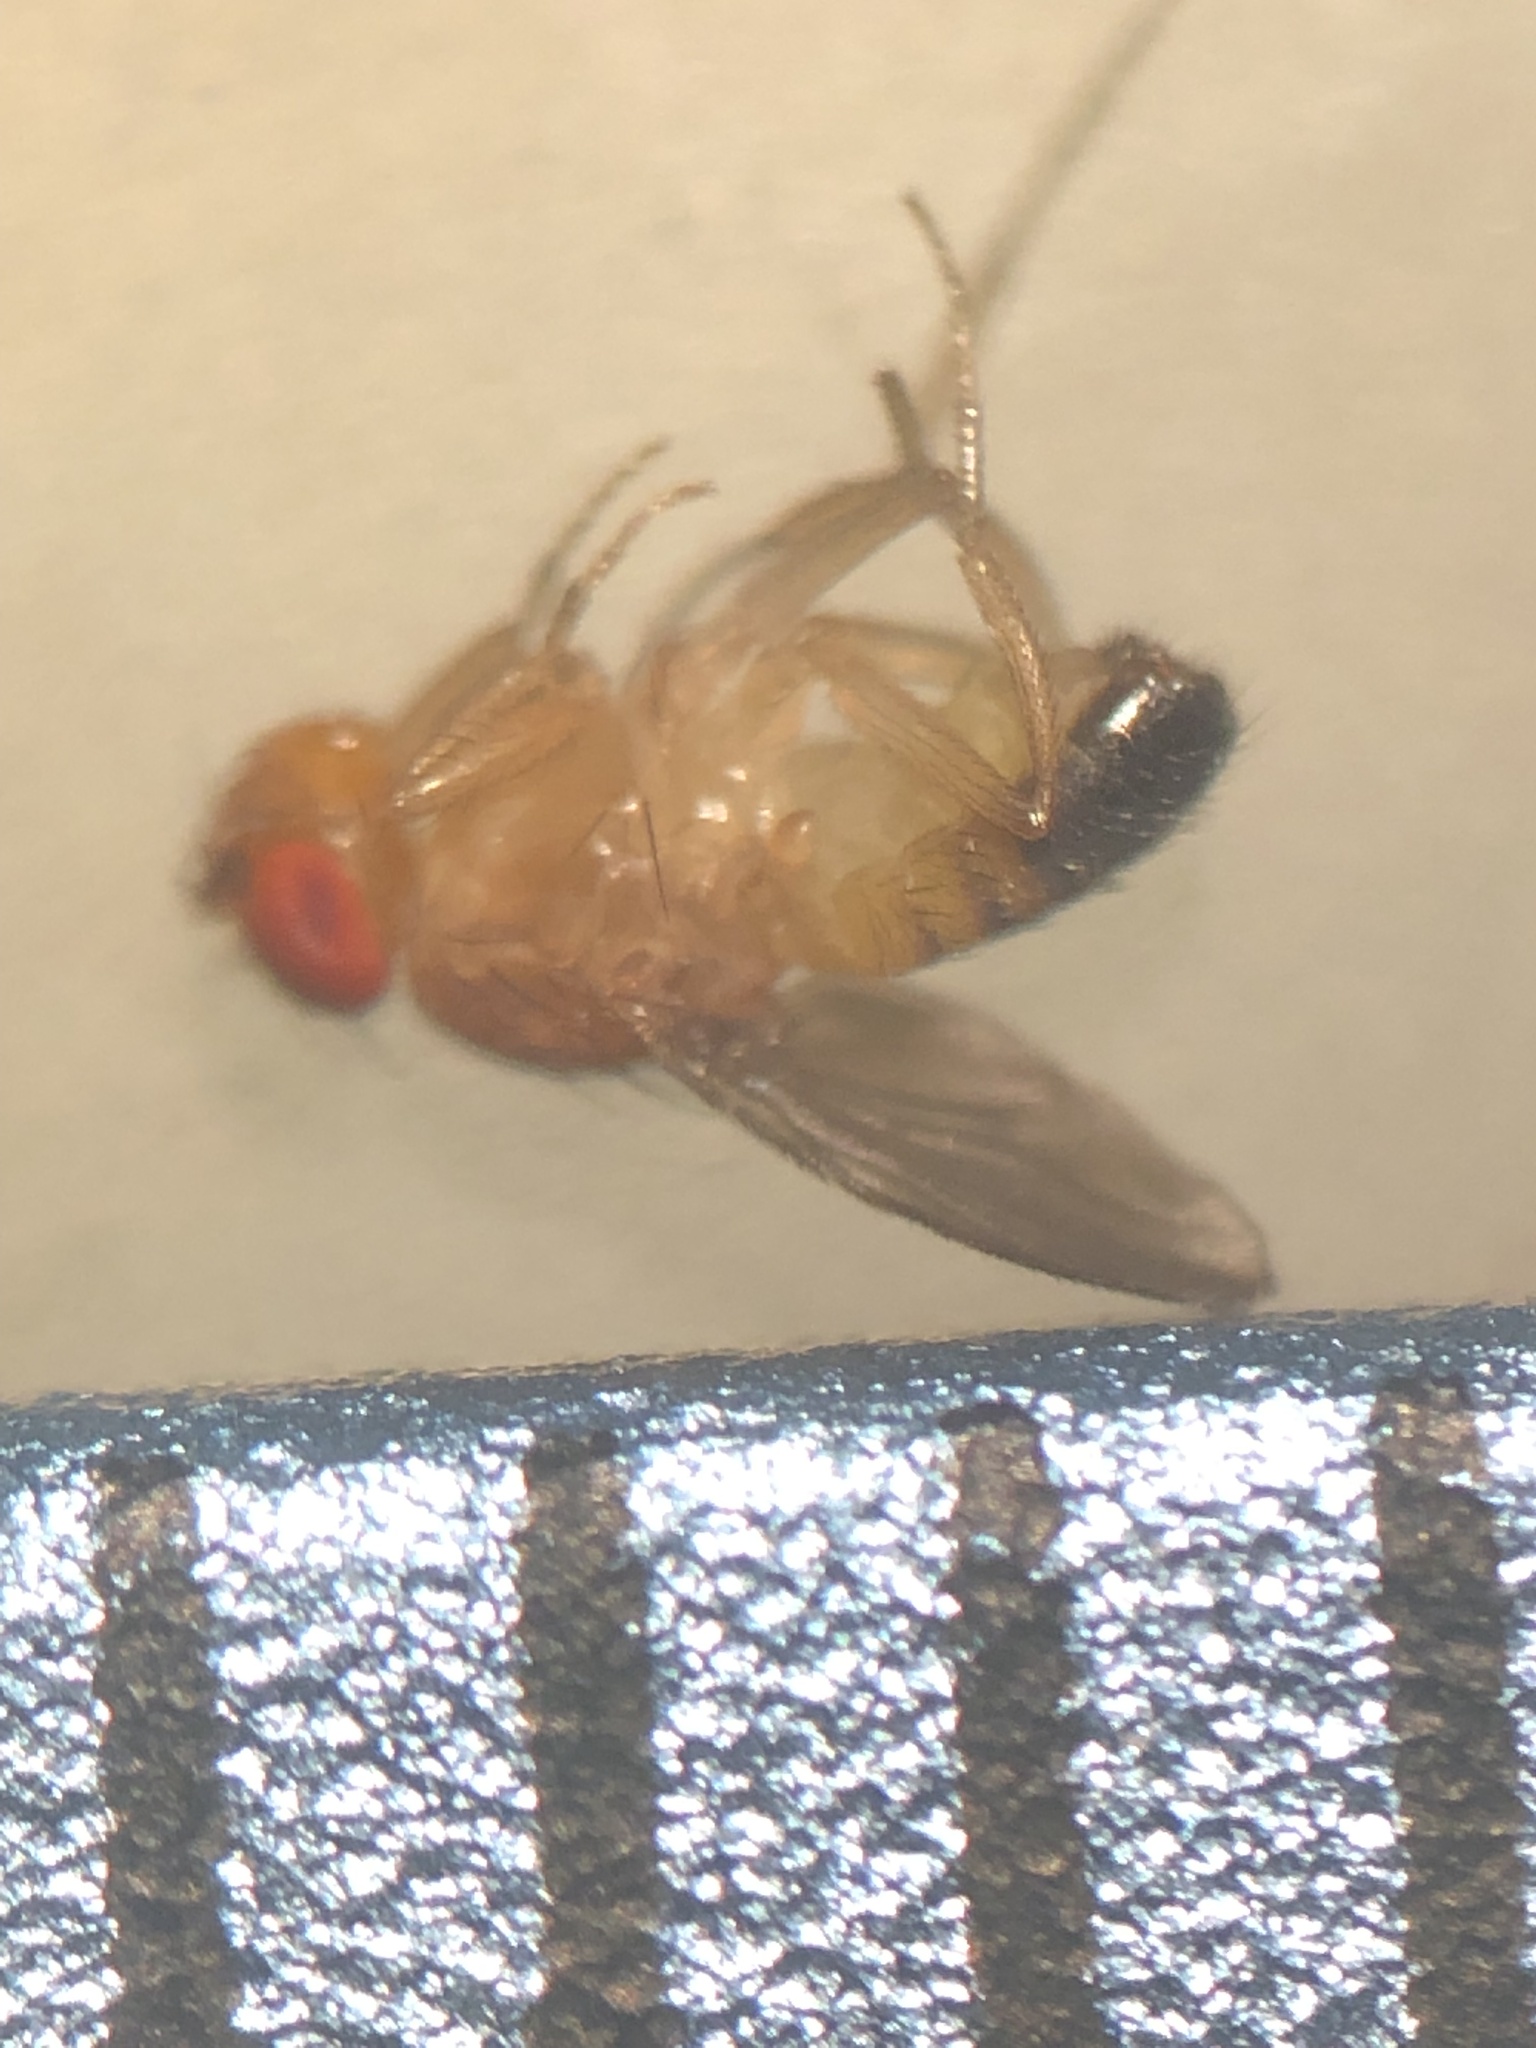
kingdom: Animalia
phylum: Arthropoda
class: Insecta
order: Diptera
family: Drosophilidae
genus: Drosophila
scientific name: Drosophila melanogaster
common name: Pomace fly
